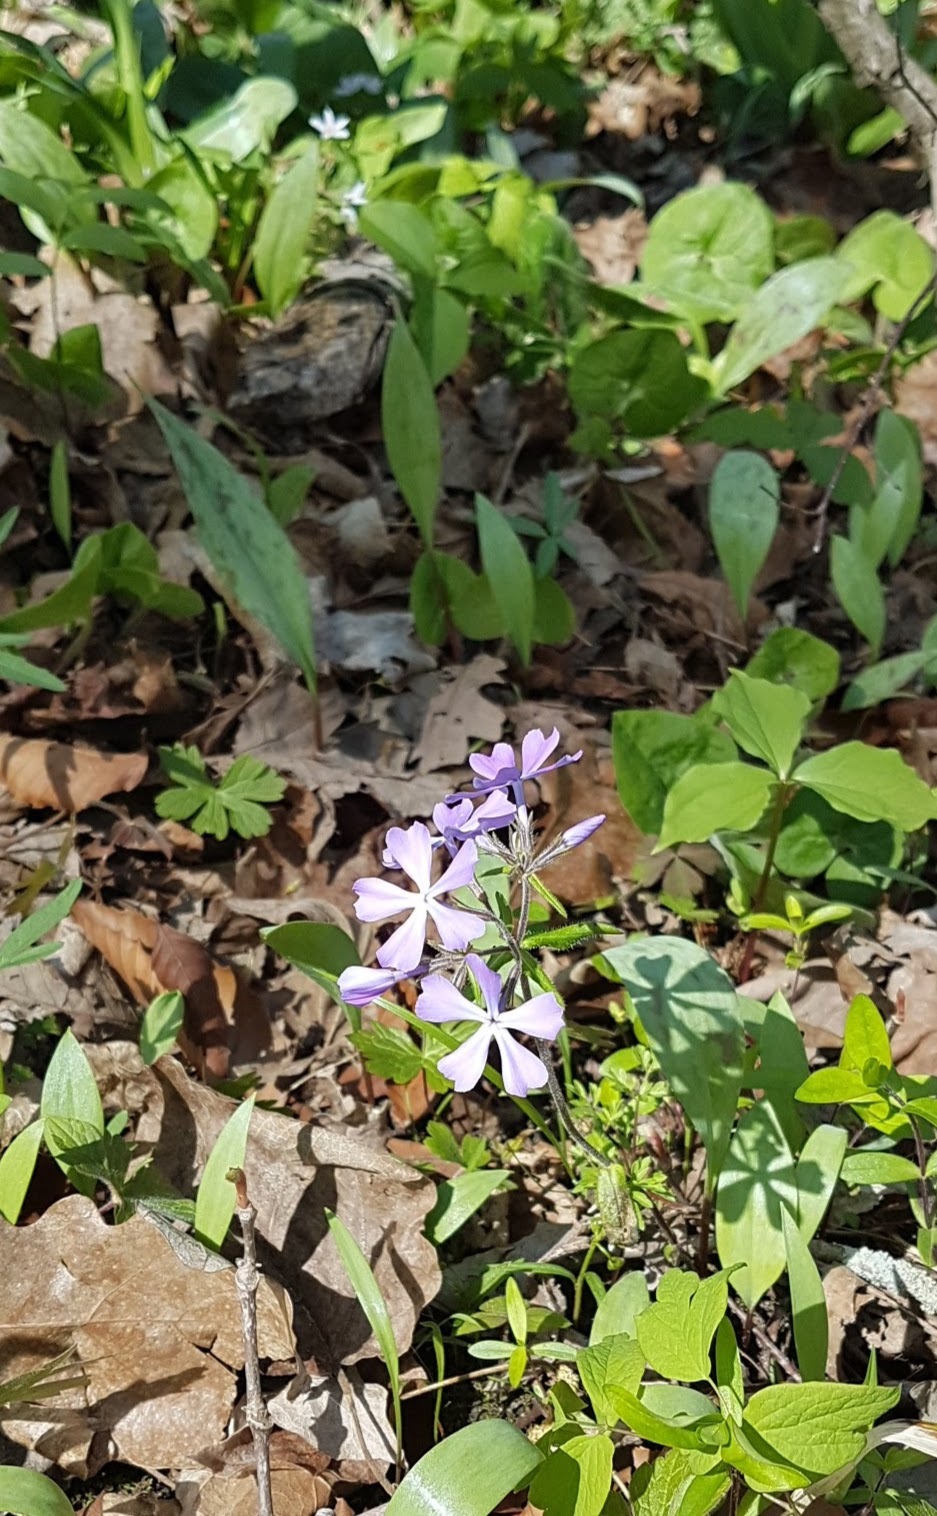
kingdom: Plantae
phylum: Tracheophyta
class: Magnoliopsida
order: Ericales
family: Polemoniaceae
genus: Phlox
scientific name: Phlox divaricata
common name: Blue phlox
